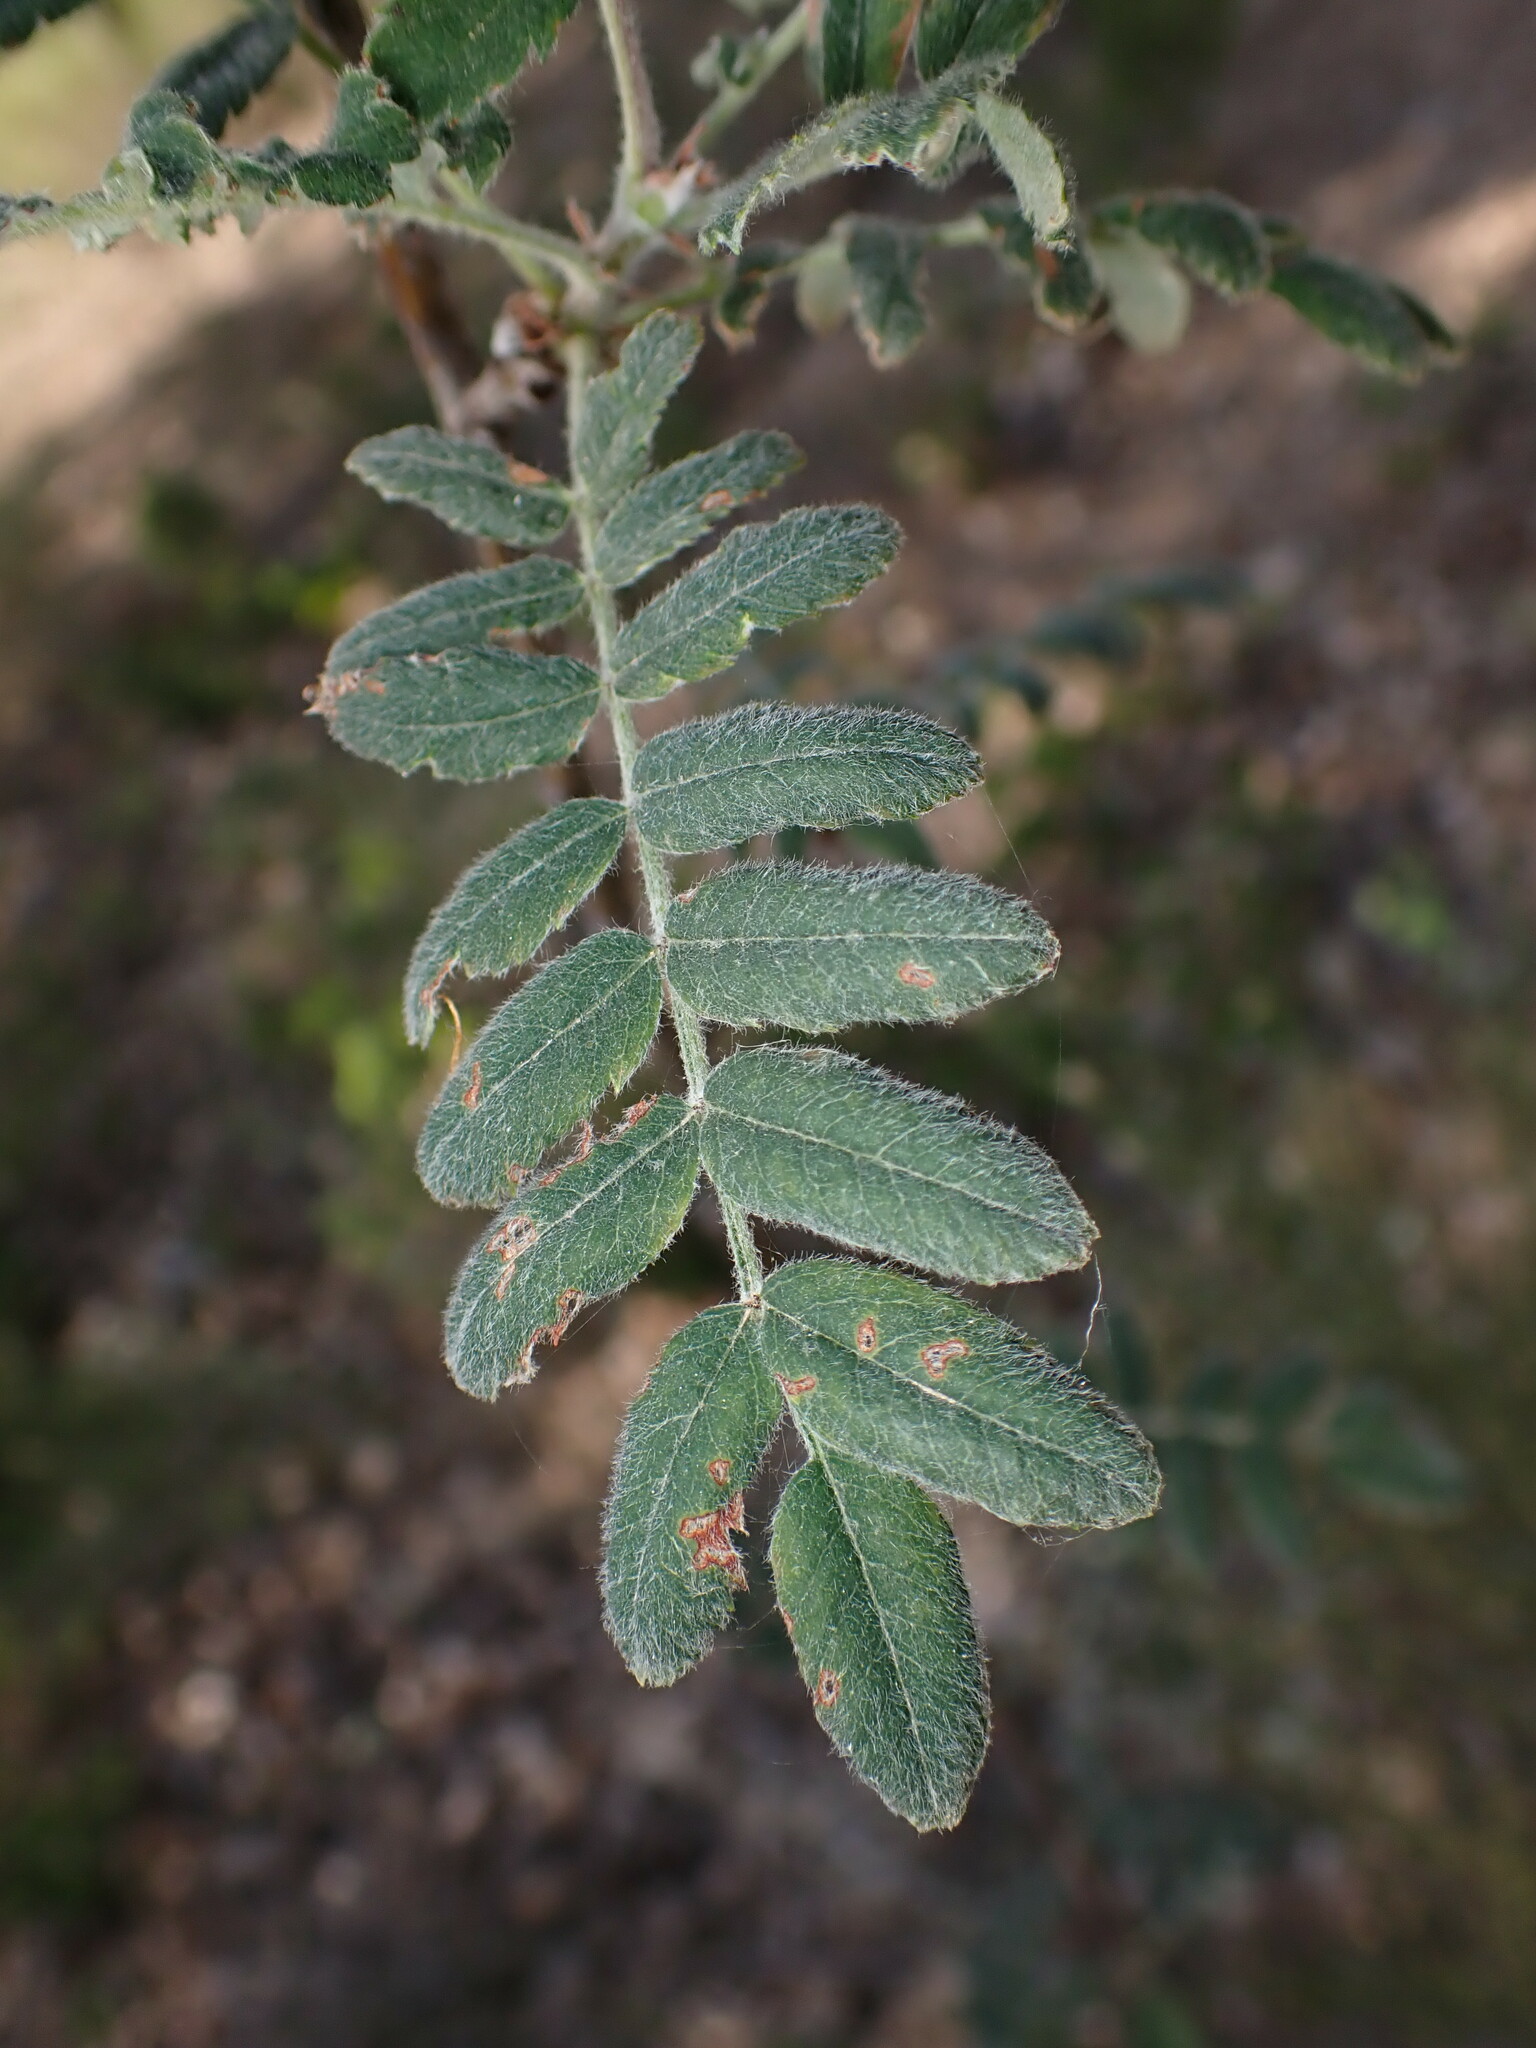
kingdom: Plantae
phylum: Tracheophyta
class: Magnoliopsida
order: Rosales
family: Rosaceae
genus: Sorbus
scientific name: Sorbus aucuparia
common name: Rowan
